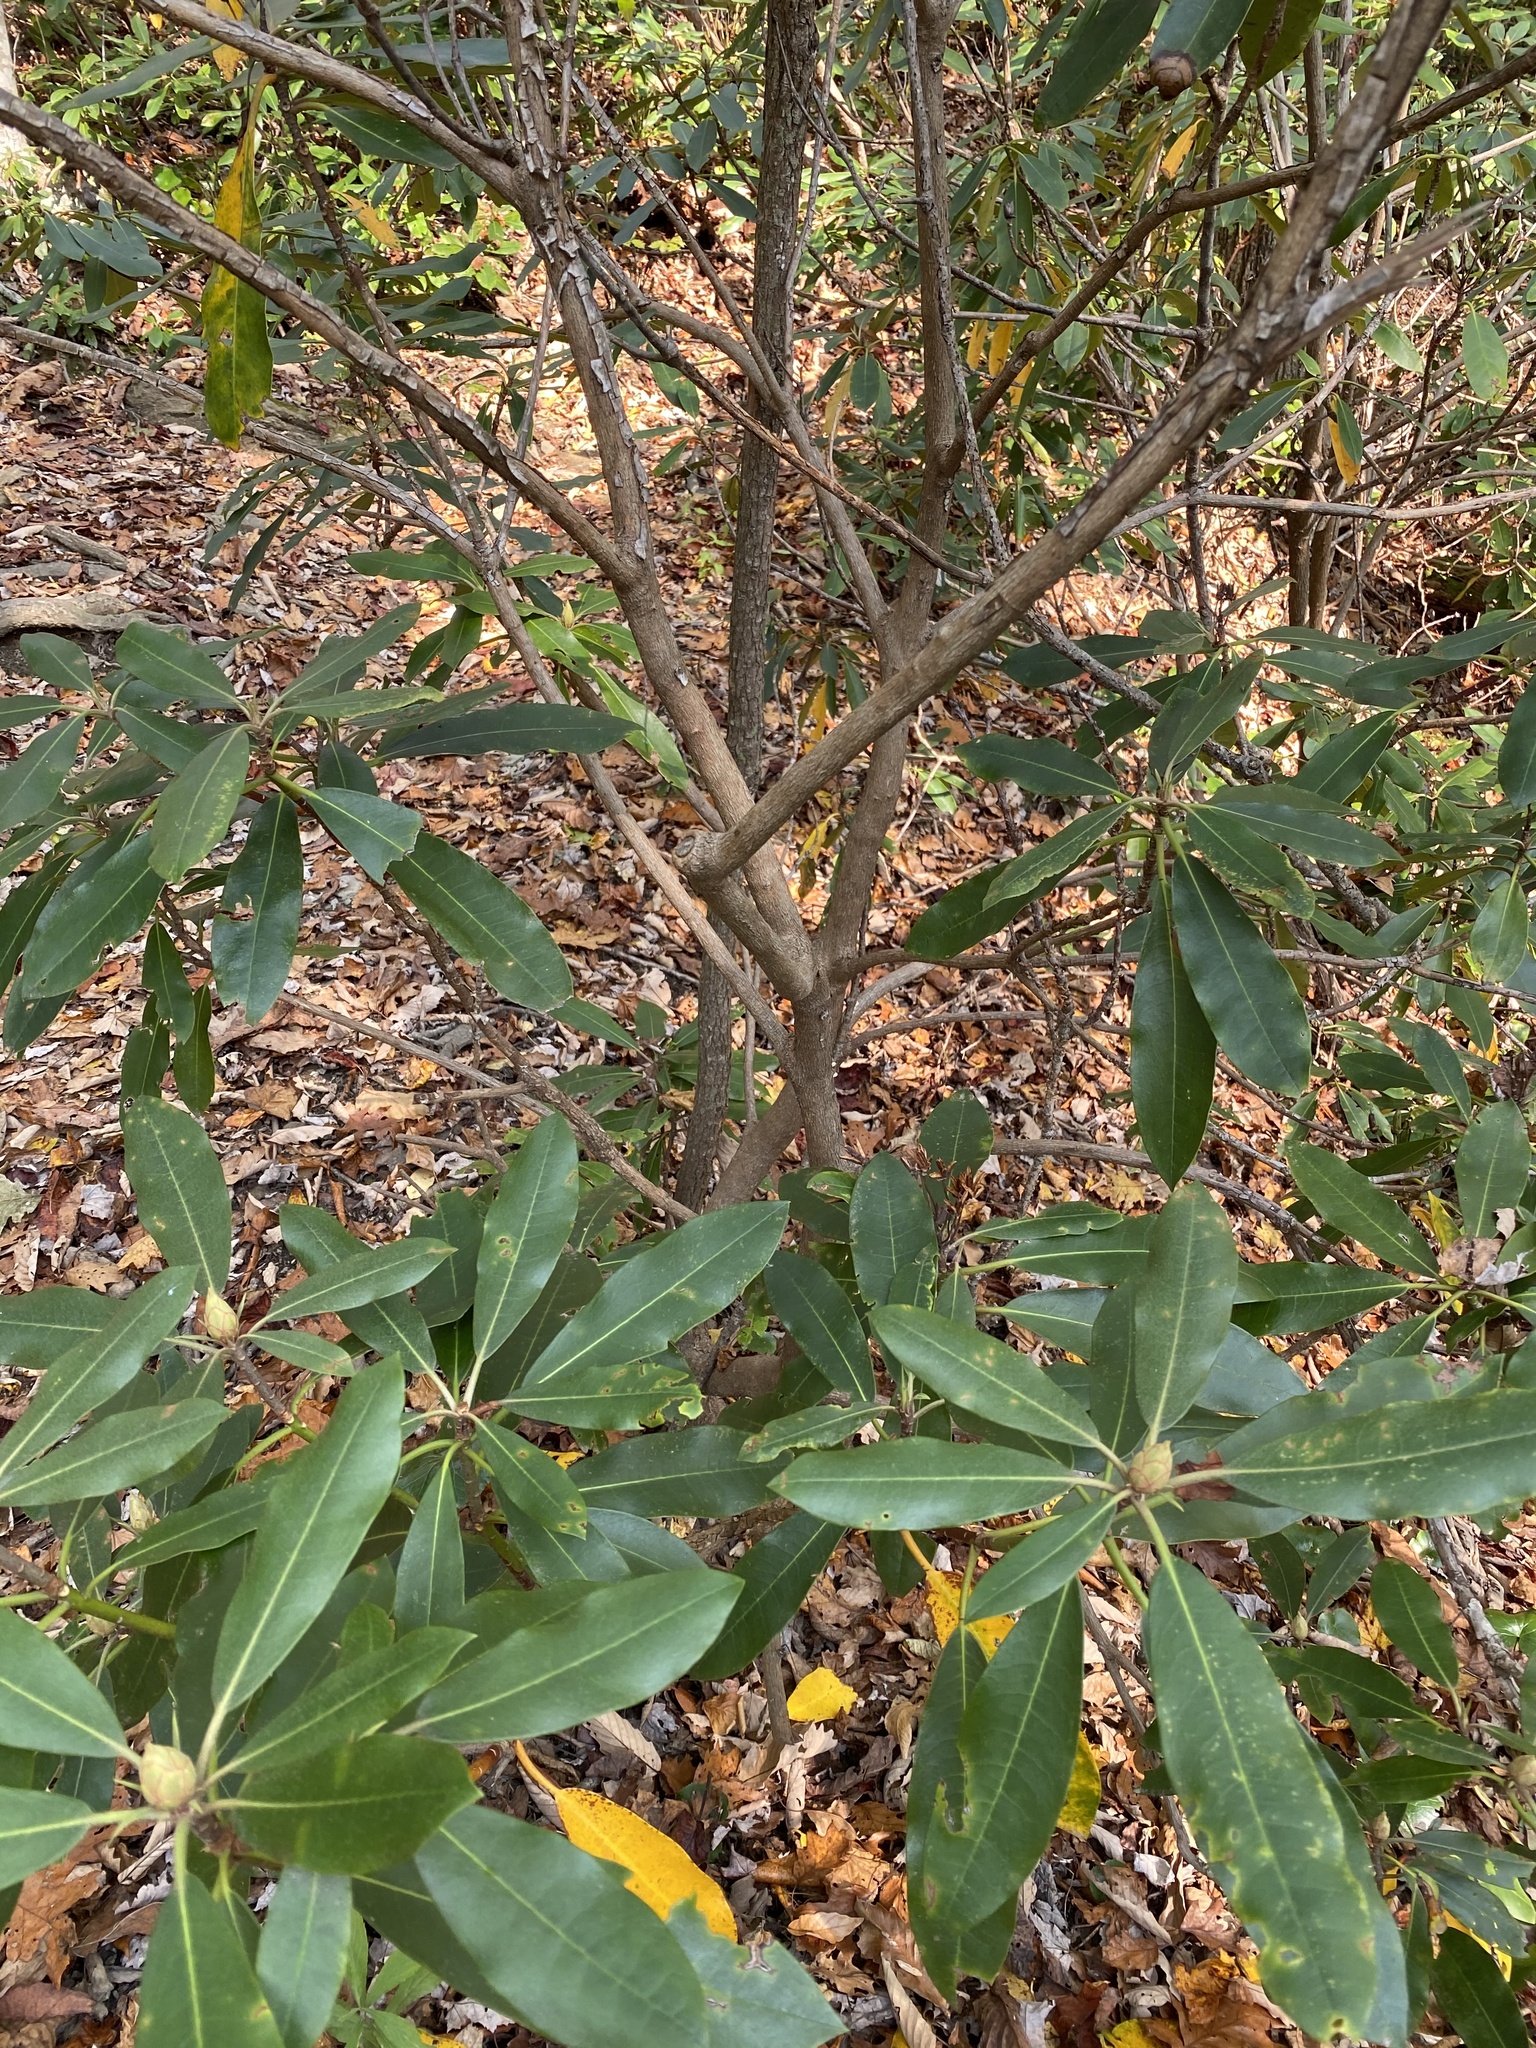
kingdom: Plantae
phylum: Tracheophyta
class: Magnoliopsida
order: Ericales
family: Ericaceae
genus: Rhododendron
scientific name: Rhododendron maximum
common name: Great rhododendron
